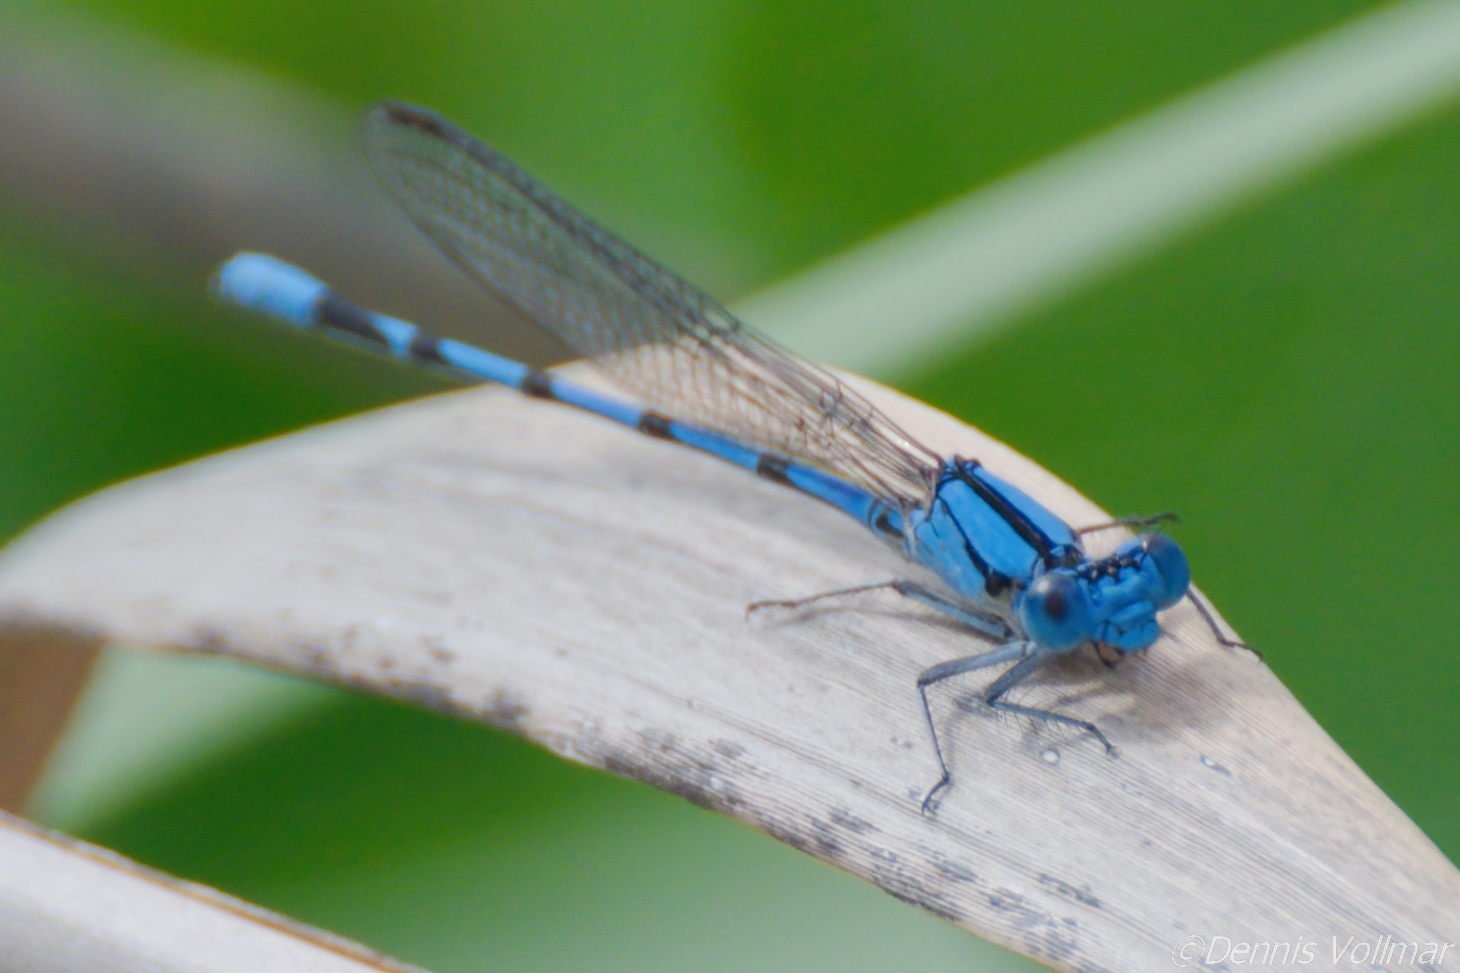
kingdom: Animalia
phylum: Arthropoda
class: Insecta
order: Odonata
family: Coenagrionidae
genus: Argia
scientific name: Argia barretti
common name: Comanche dancer
